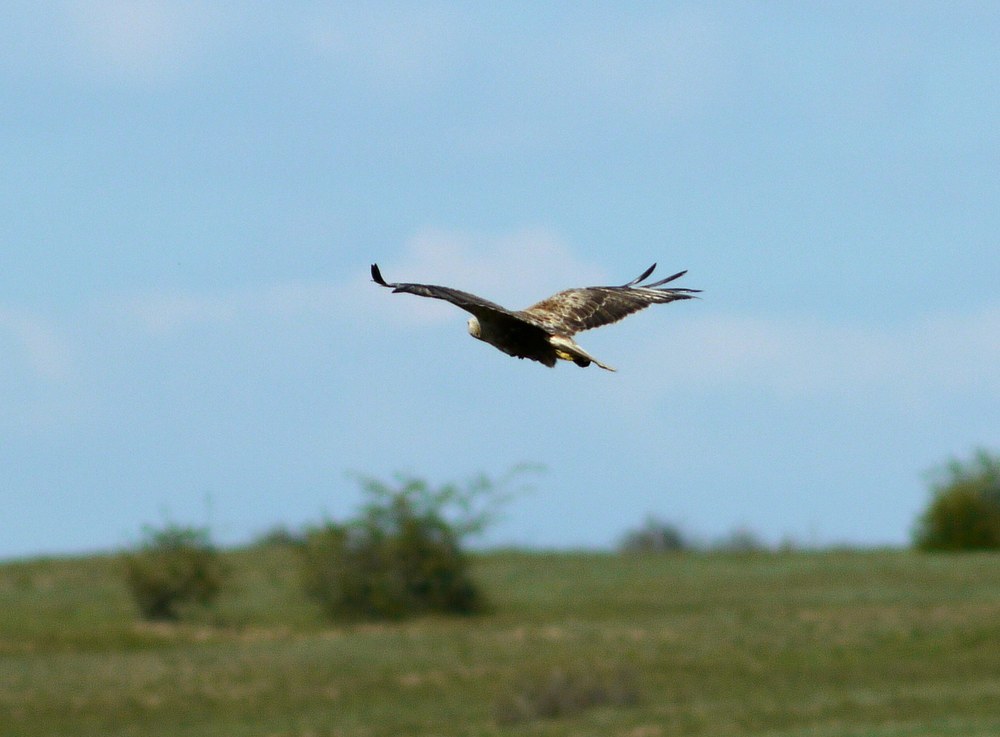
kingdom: Animalia
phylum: Chordata
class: Aves
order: Accipitriformes
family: Accipitridae
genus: Buteo
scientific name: Buteo rufinus
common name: Long-legged buzzard
